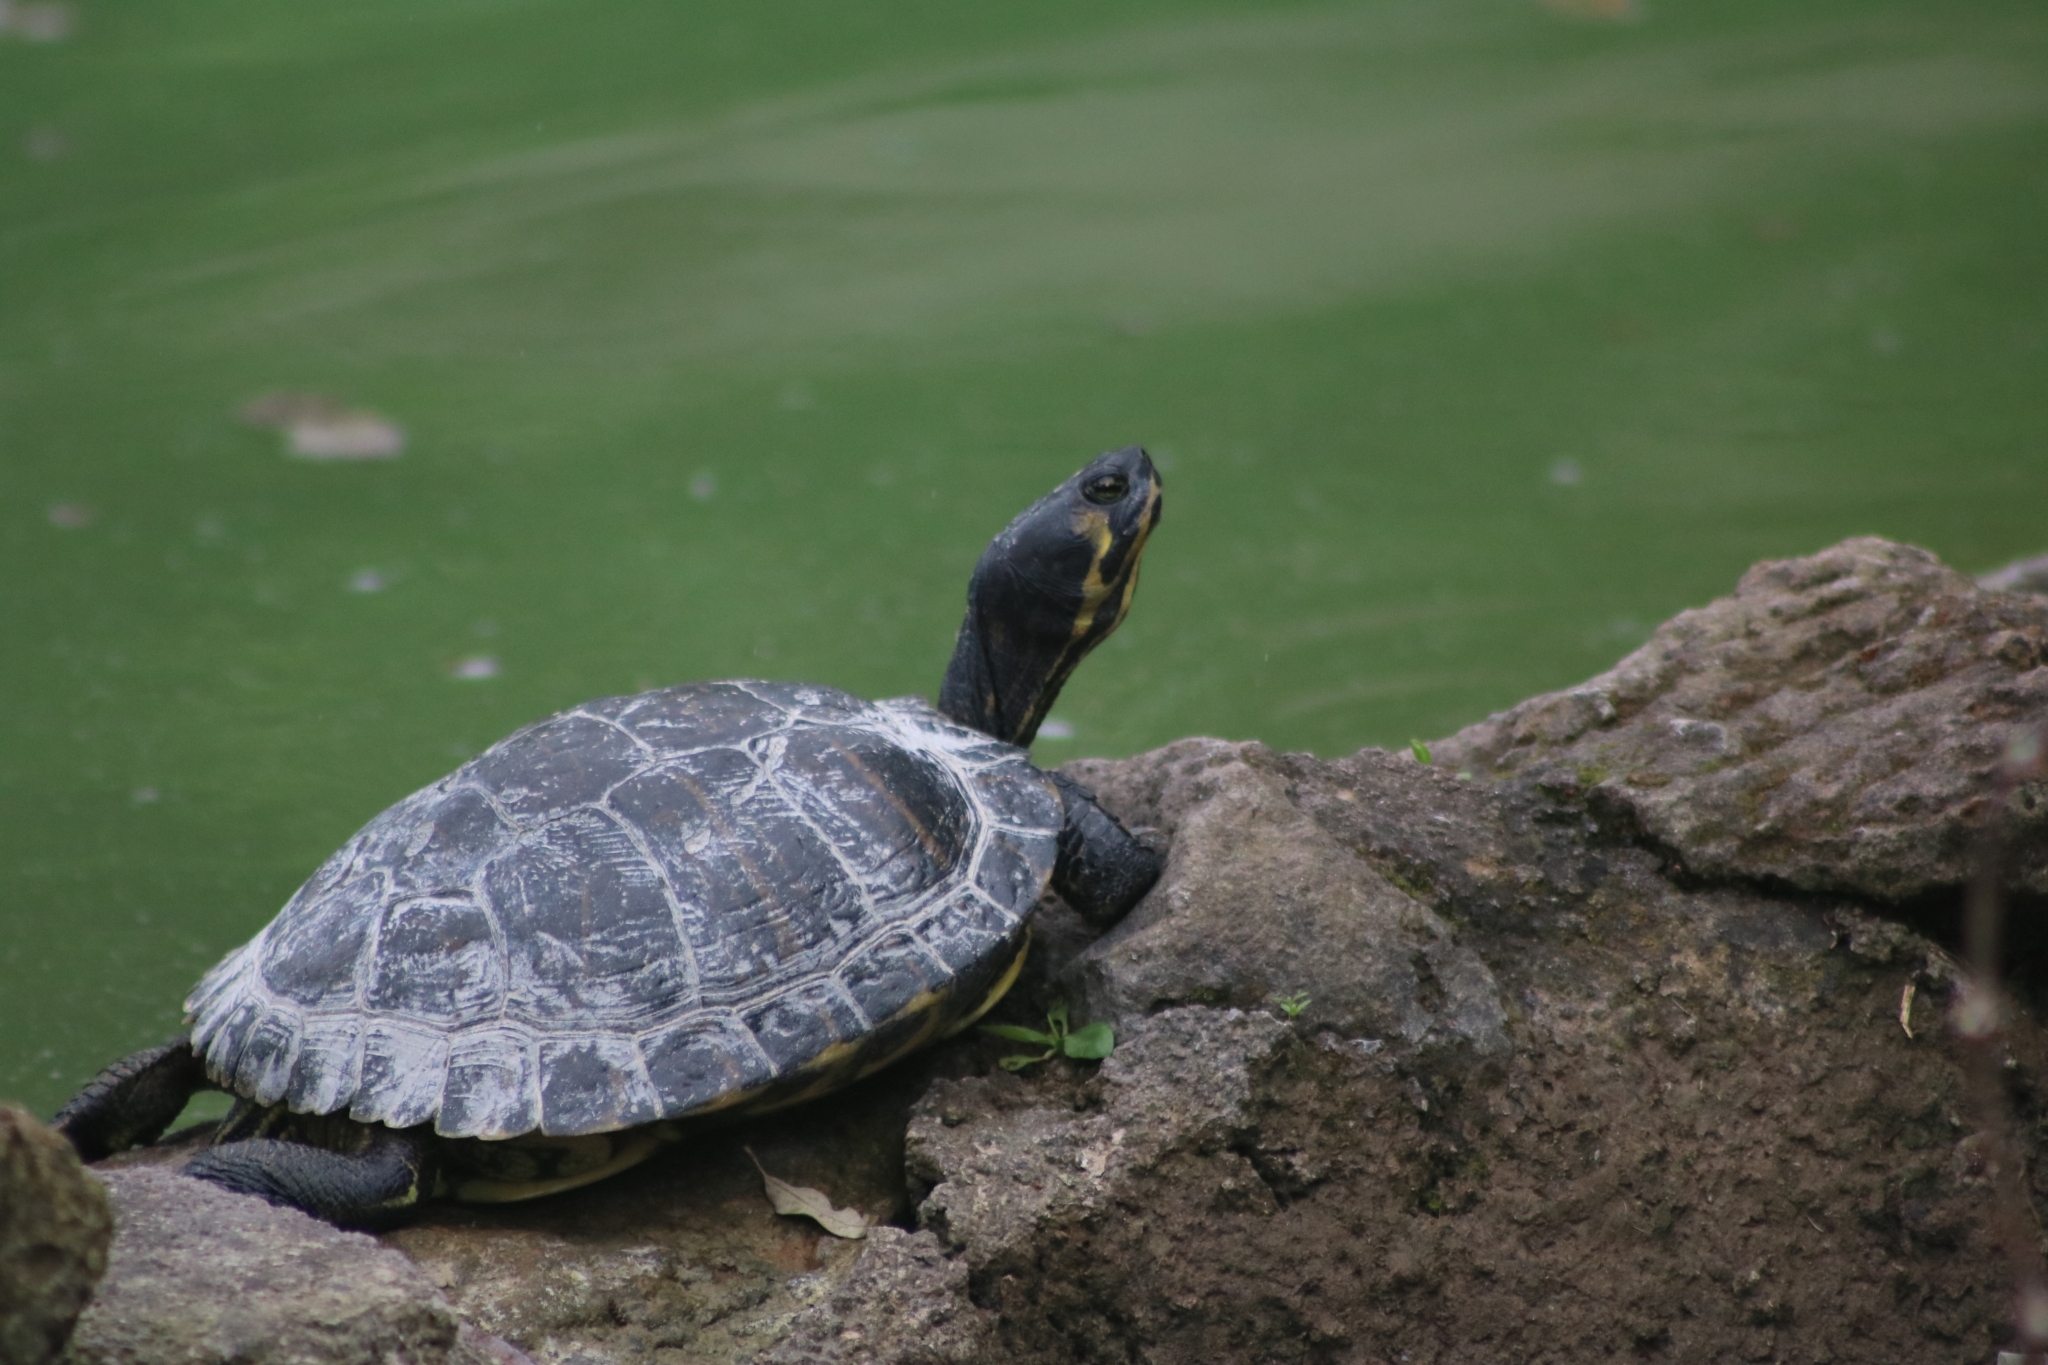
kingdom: Animalia
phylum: Chordata
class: Testudines
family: Emydidae
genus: Trachemys
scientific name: Trachemys scripta
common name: Slider
